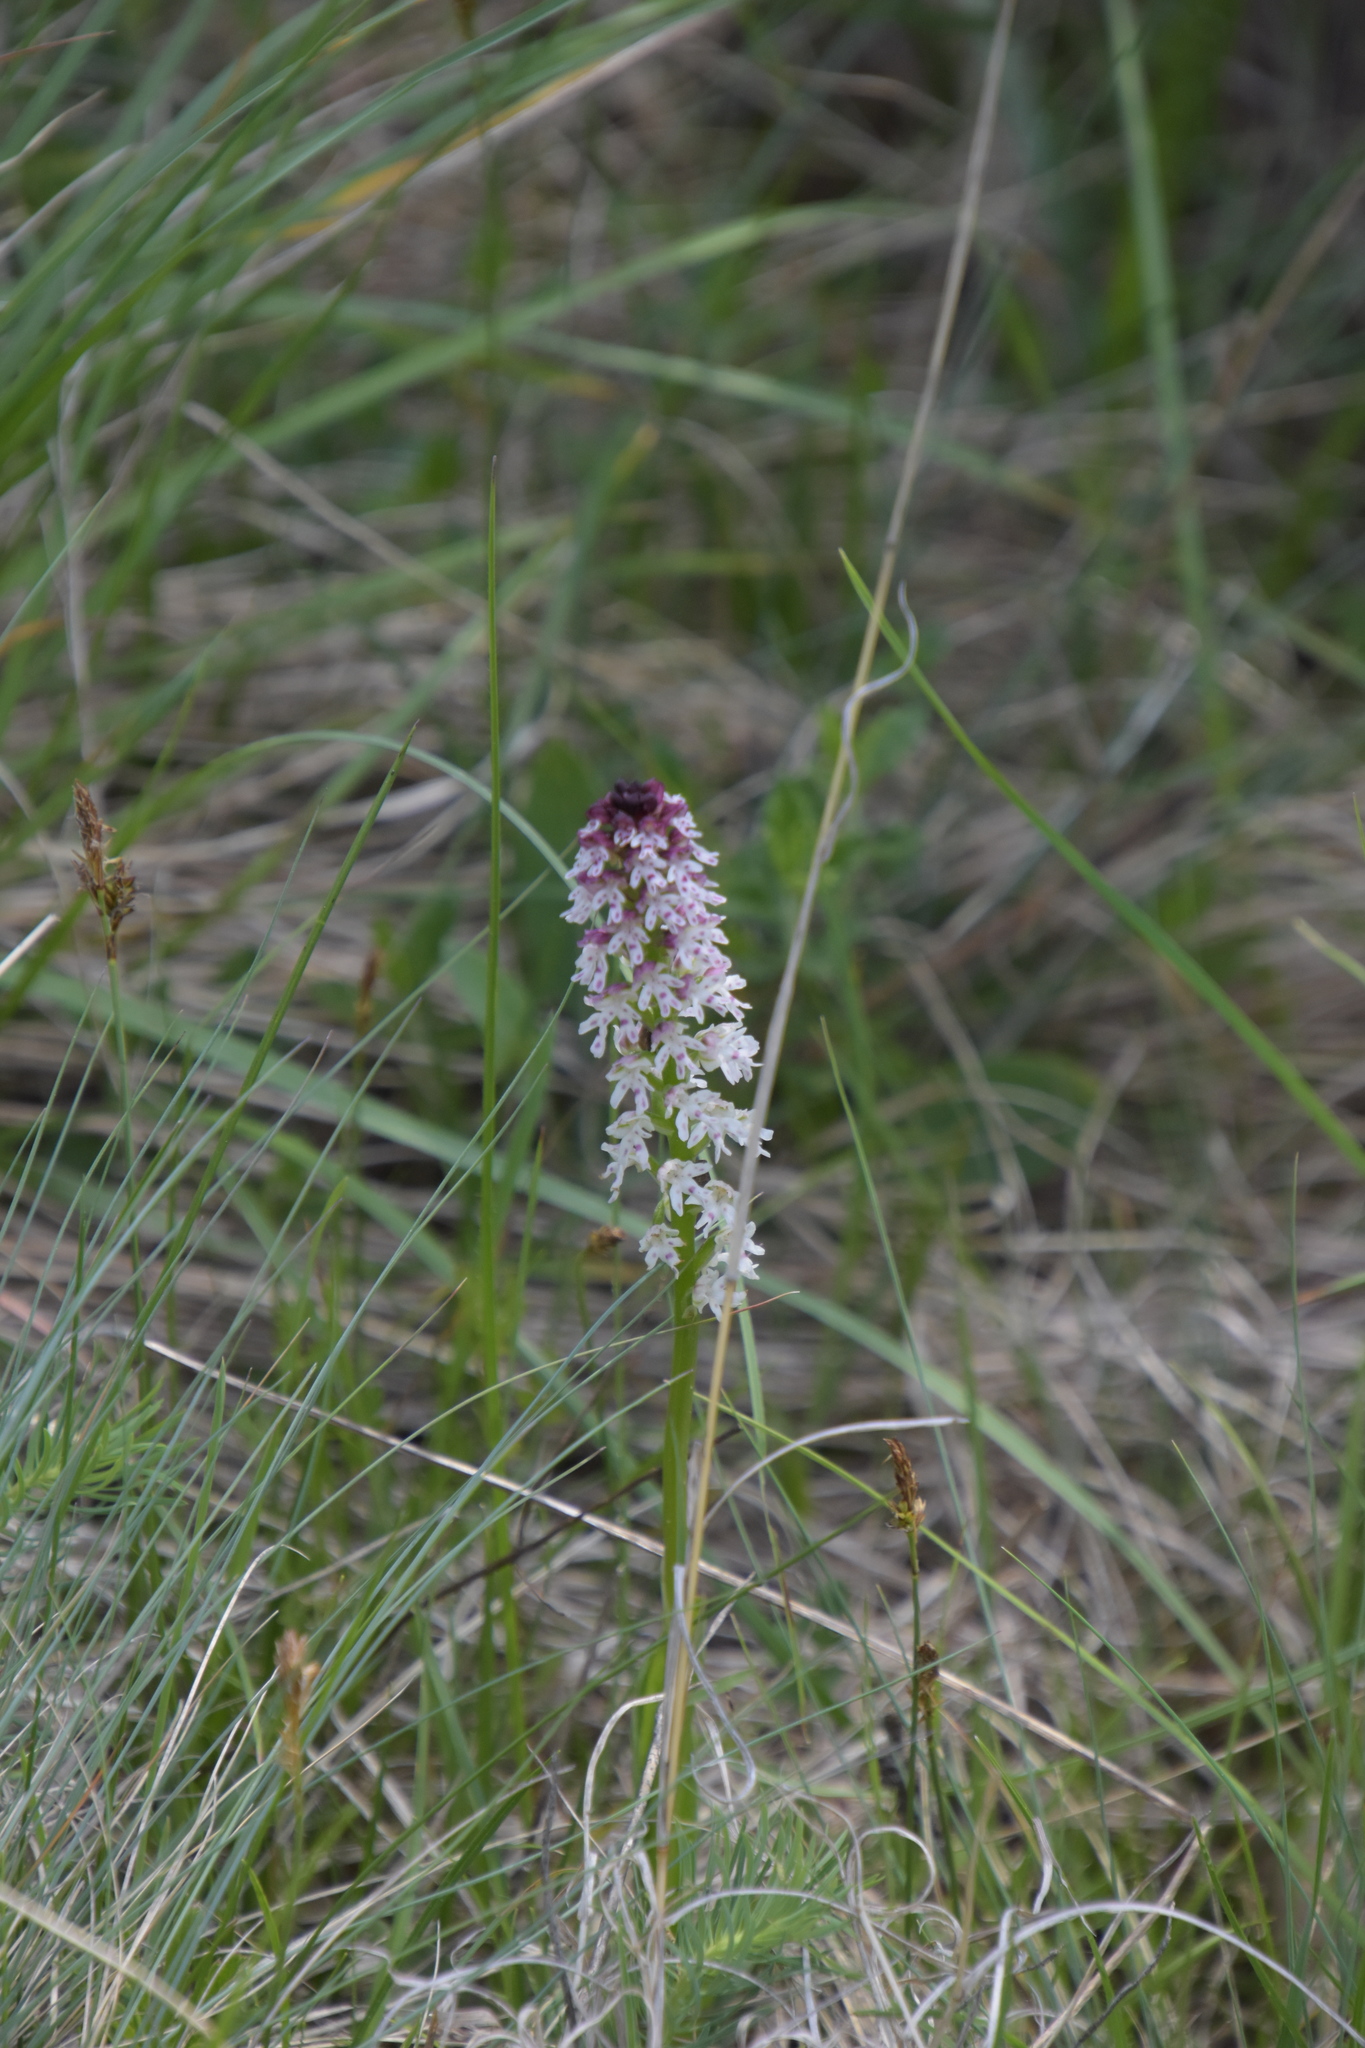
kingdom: Plantae
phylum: Tracheophyta
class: Liliopsida
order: Asparagales
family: Orchidaceae
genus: Neotinea
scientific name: Neotinea ustulata
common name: Burnt orchid
